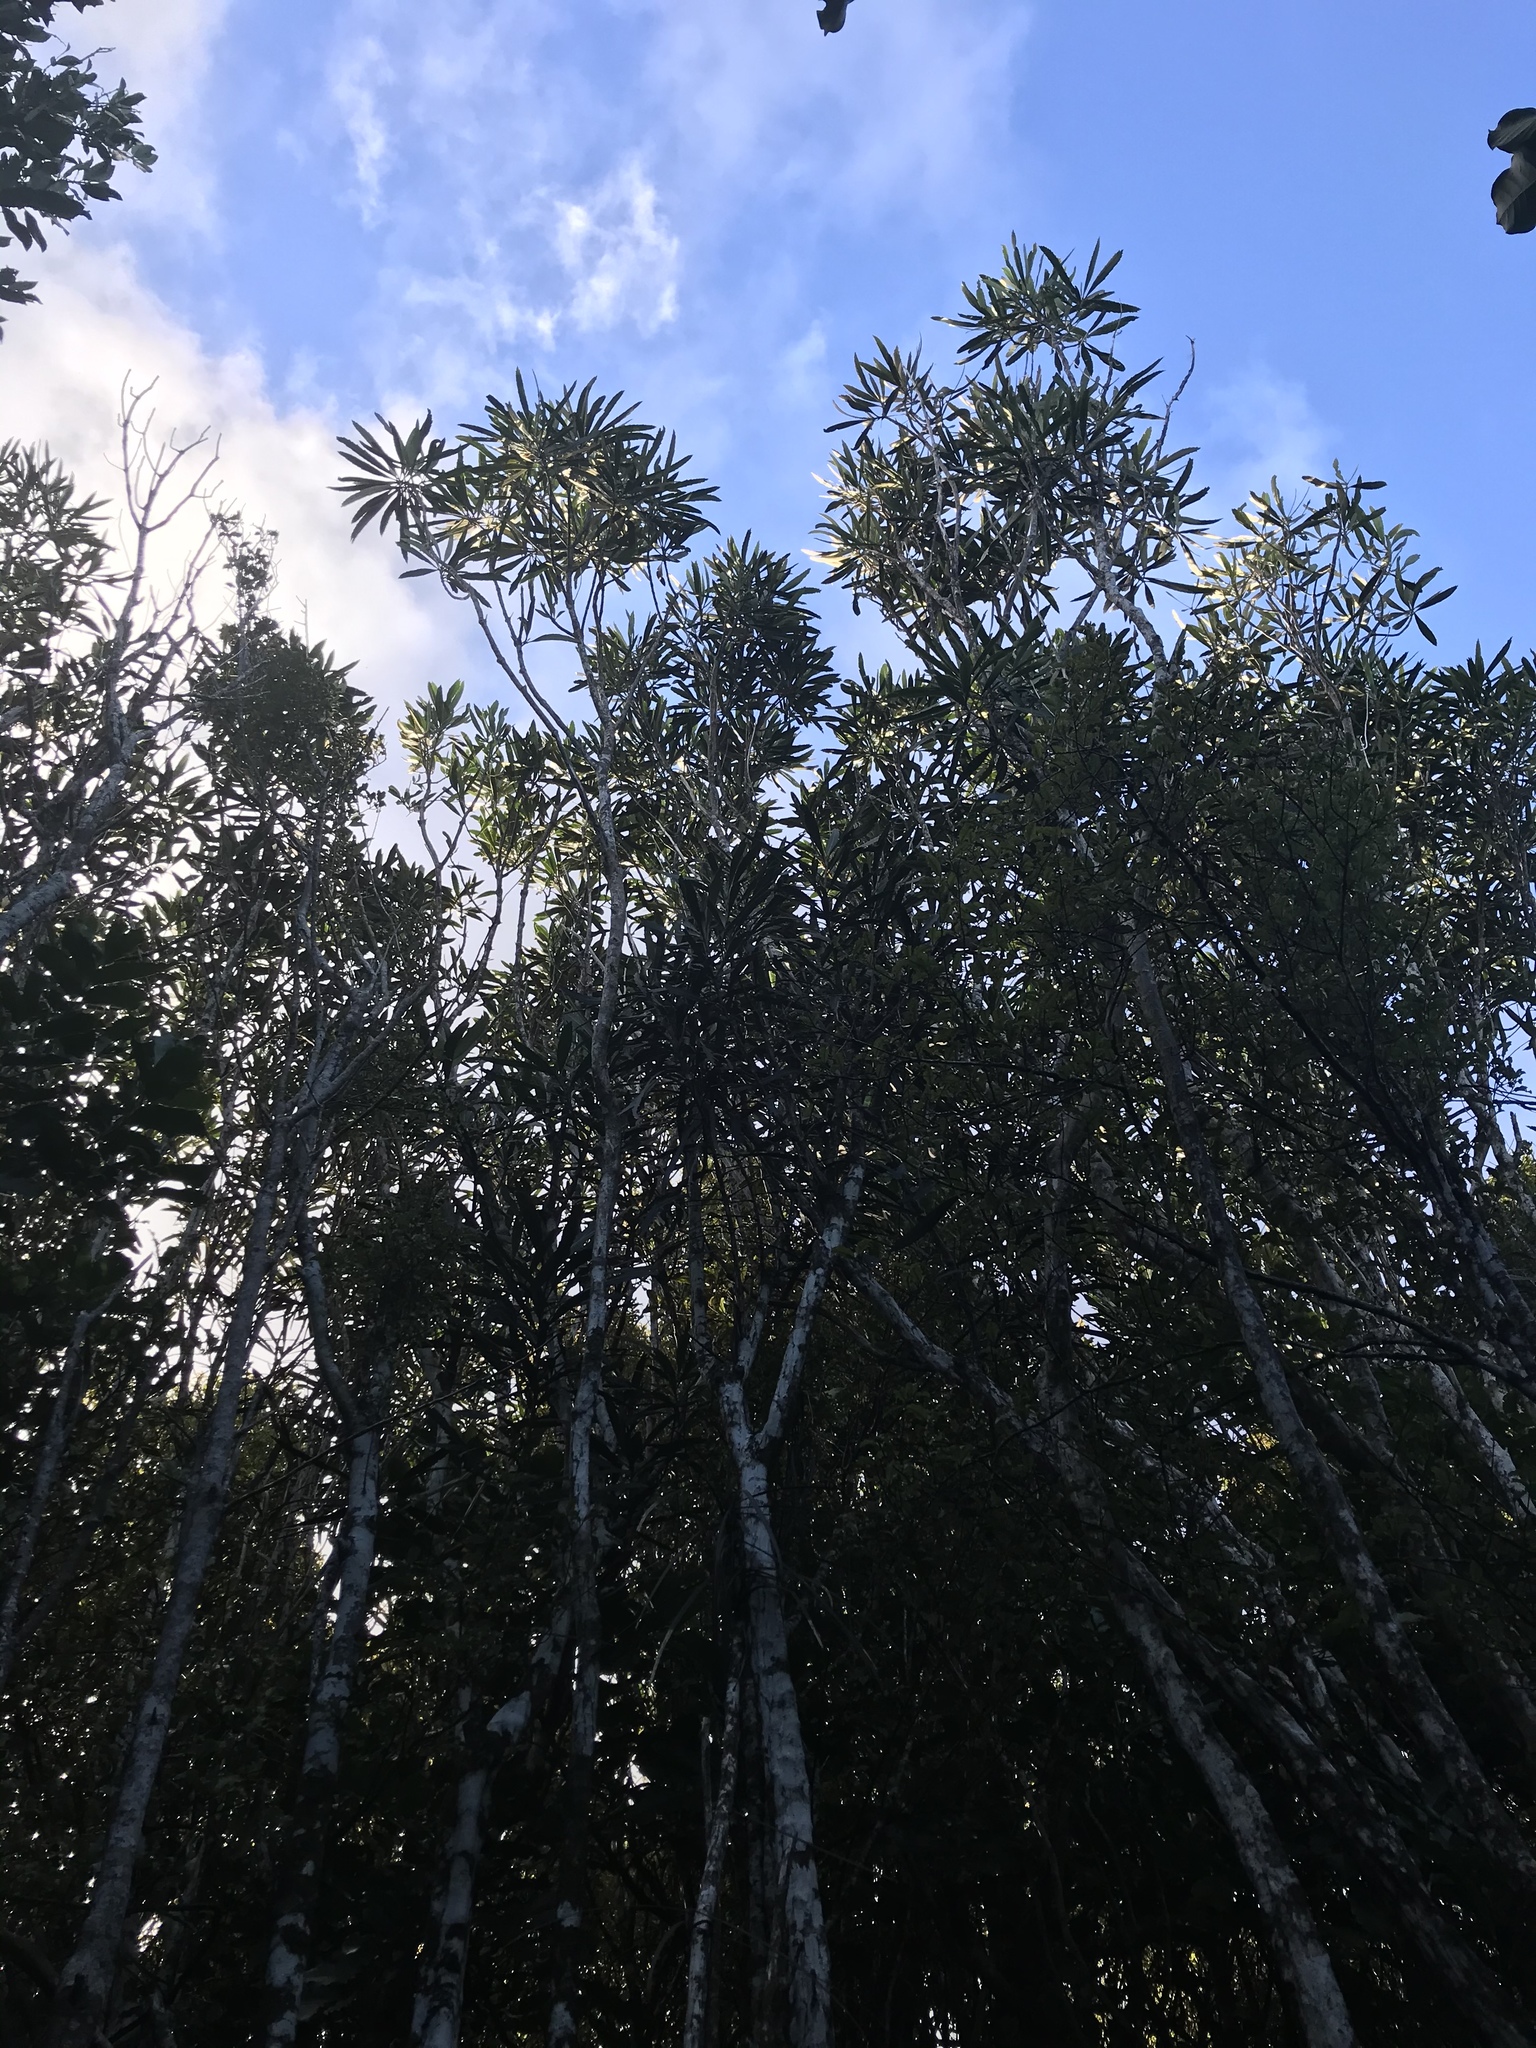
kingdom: Plantae
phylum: Tracheophyta
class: Magnoliopsida
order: Apiales
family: Araliaceae
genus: Pseudopanax
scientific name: Pseudopanax crassifolius
